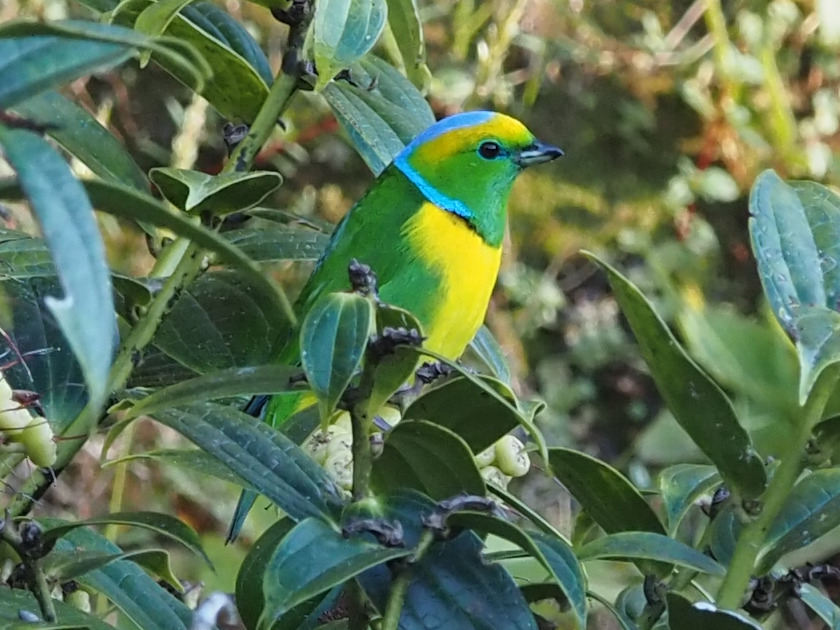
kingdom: Animalia
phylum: Chordata
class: Aves
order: Passeriformes
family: Fringillidae
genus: Chlorophonia
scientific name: Chlorophonia callophrys
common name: Golden-browed chlorophonia
